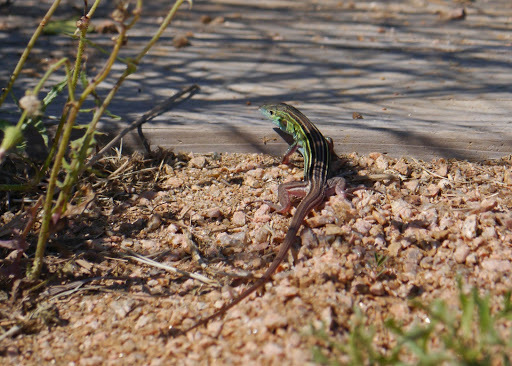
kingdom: Animalia
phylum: Chordata
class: Squamata
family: Teiidae
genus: Aspidoscelis
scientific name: Aspidoscelis sexlineatus
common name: Six-lined racerunner
